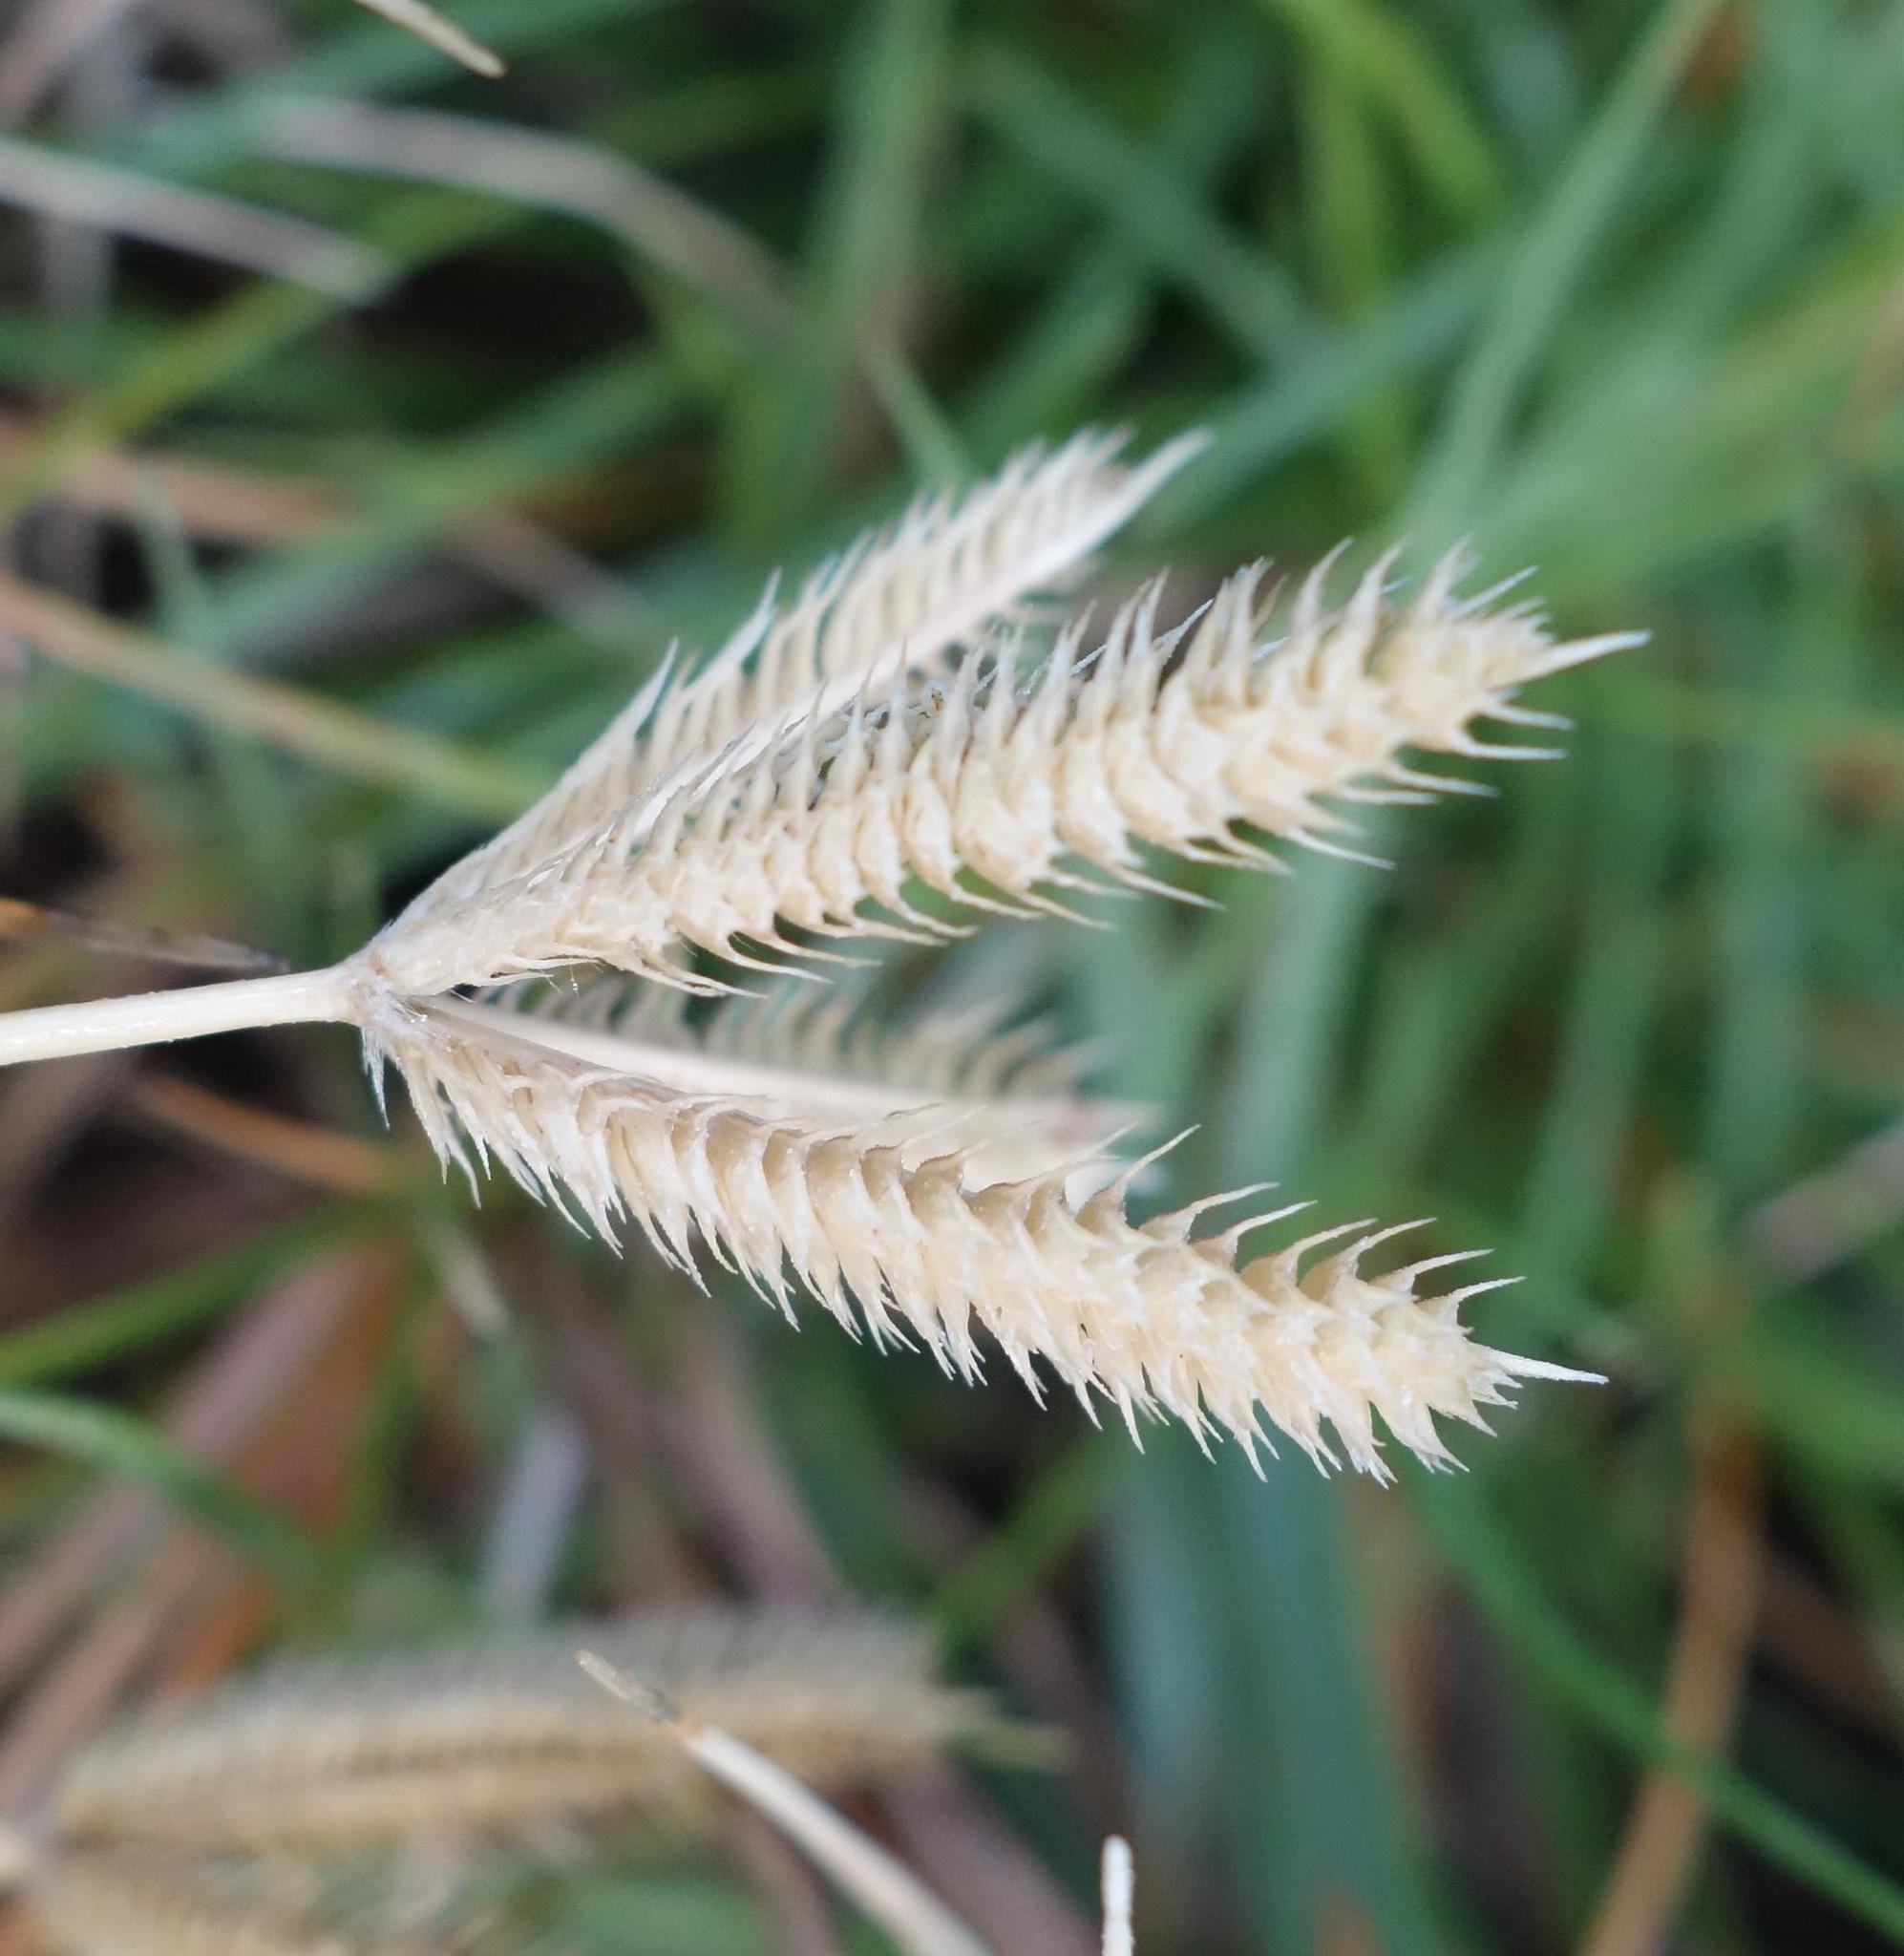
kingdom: Plantae
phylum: Tracheophyta
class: Liliopsida
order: Poales
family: Poaceae
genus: Dactyloctenium
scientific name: Dactyloctenium aegyptium
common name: Egyptian grass
